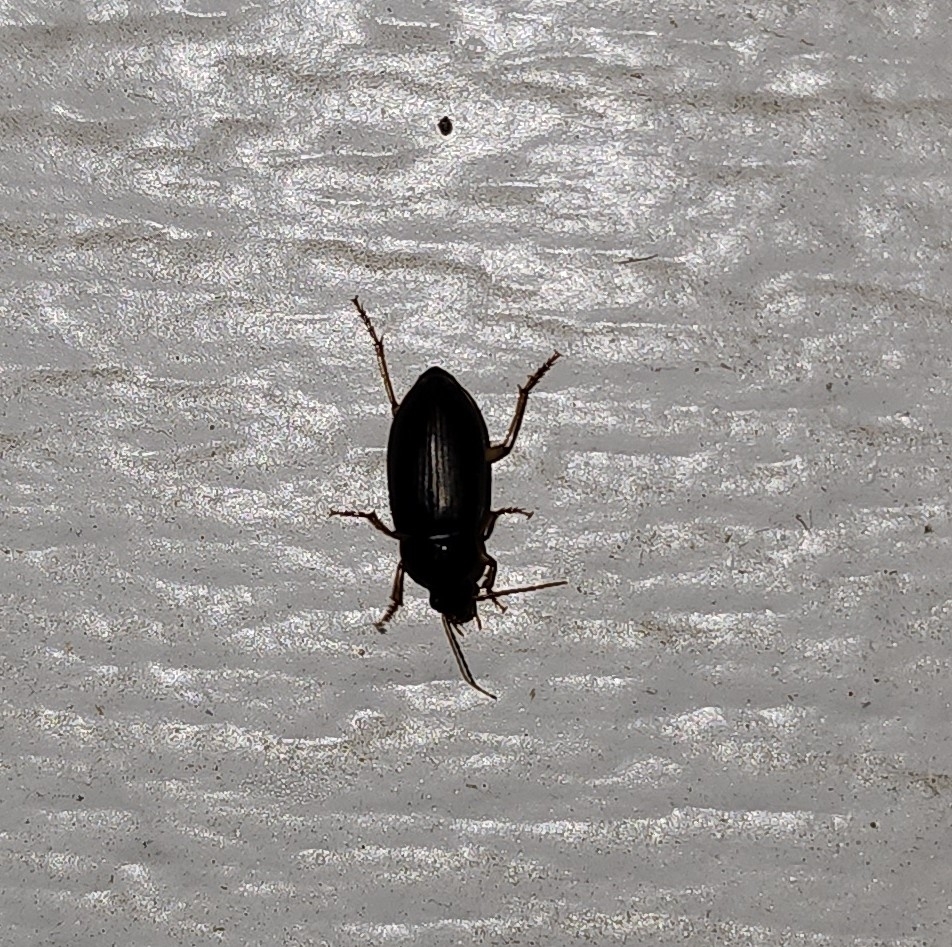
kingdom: Animalia
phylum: Arthropoda
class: Insecta
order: Coleoptera
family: Carabidae
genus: Notiobia
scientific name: Notiobia terminata
